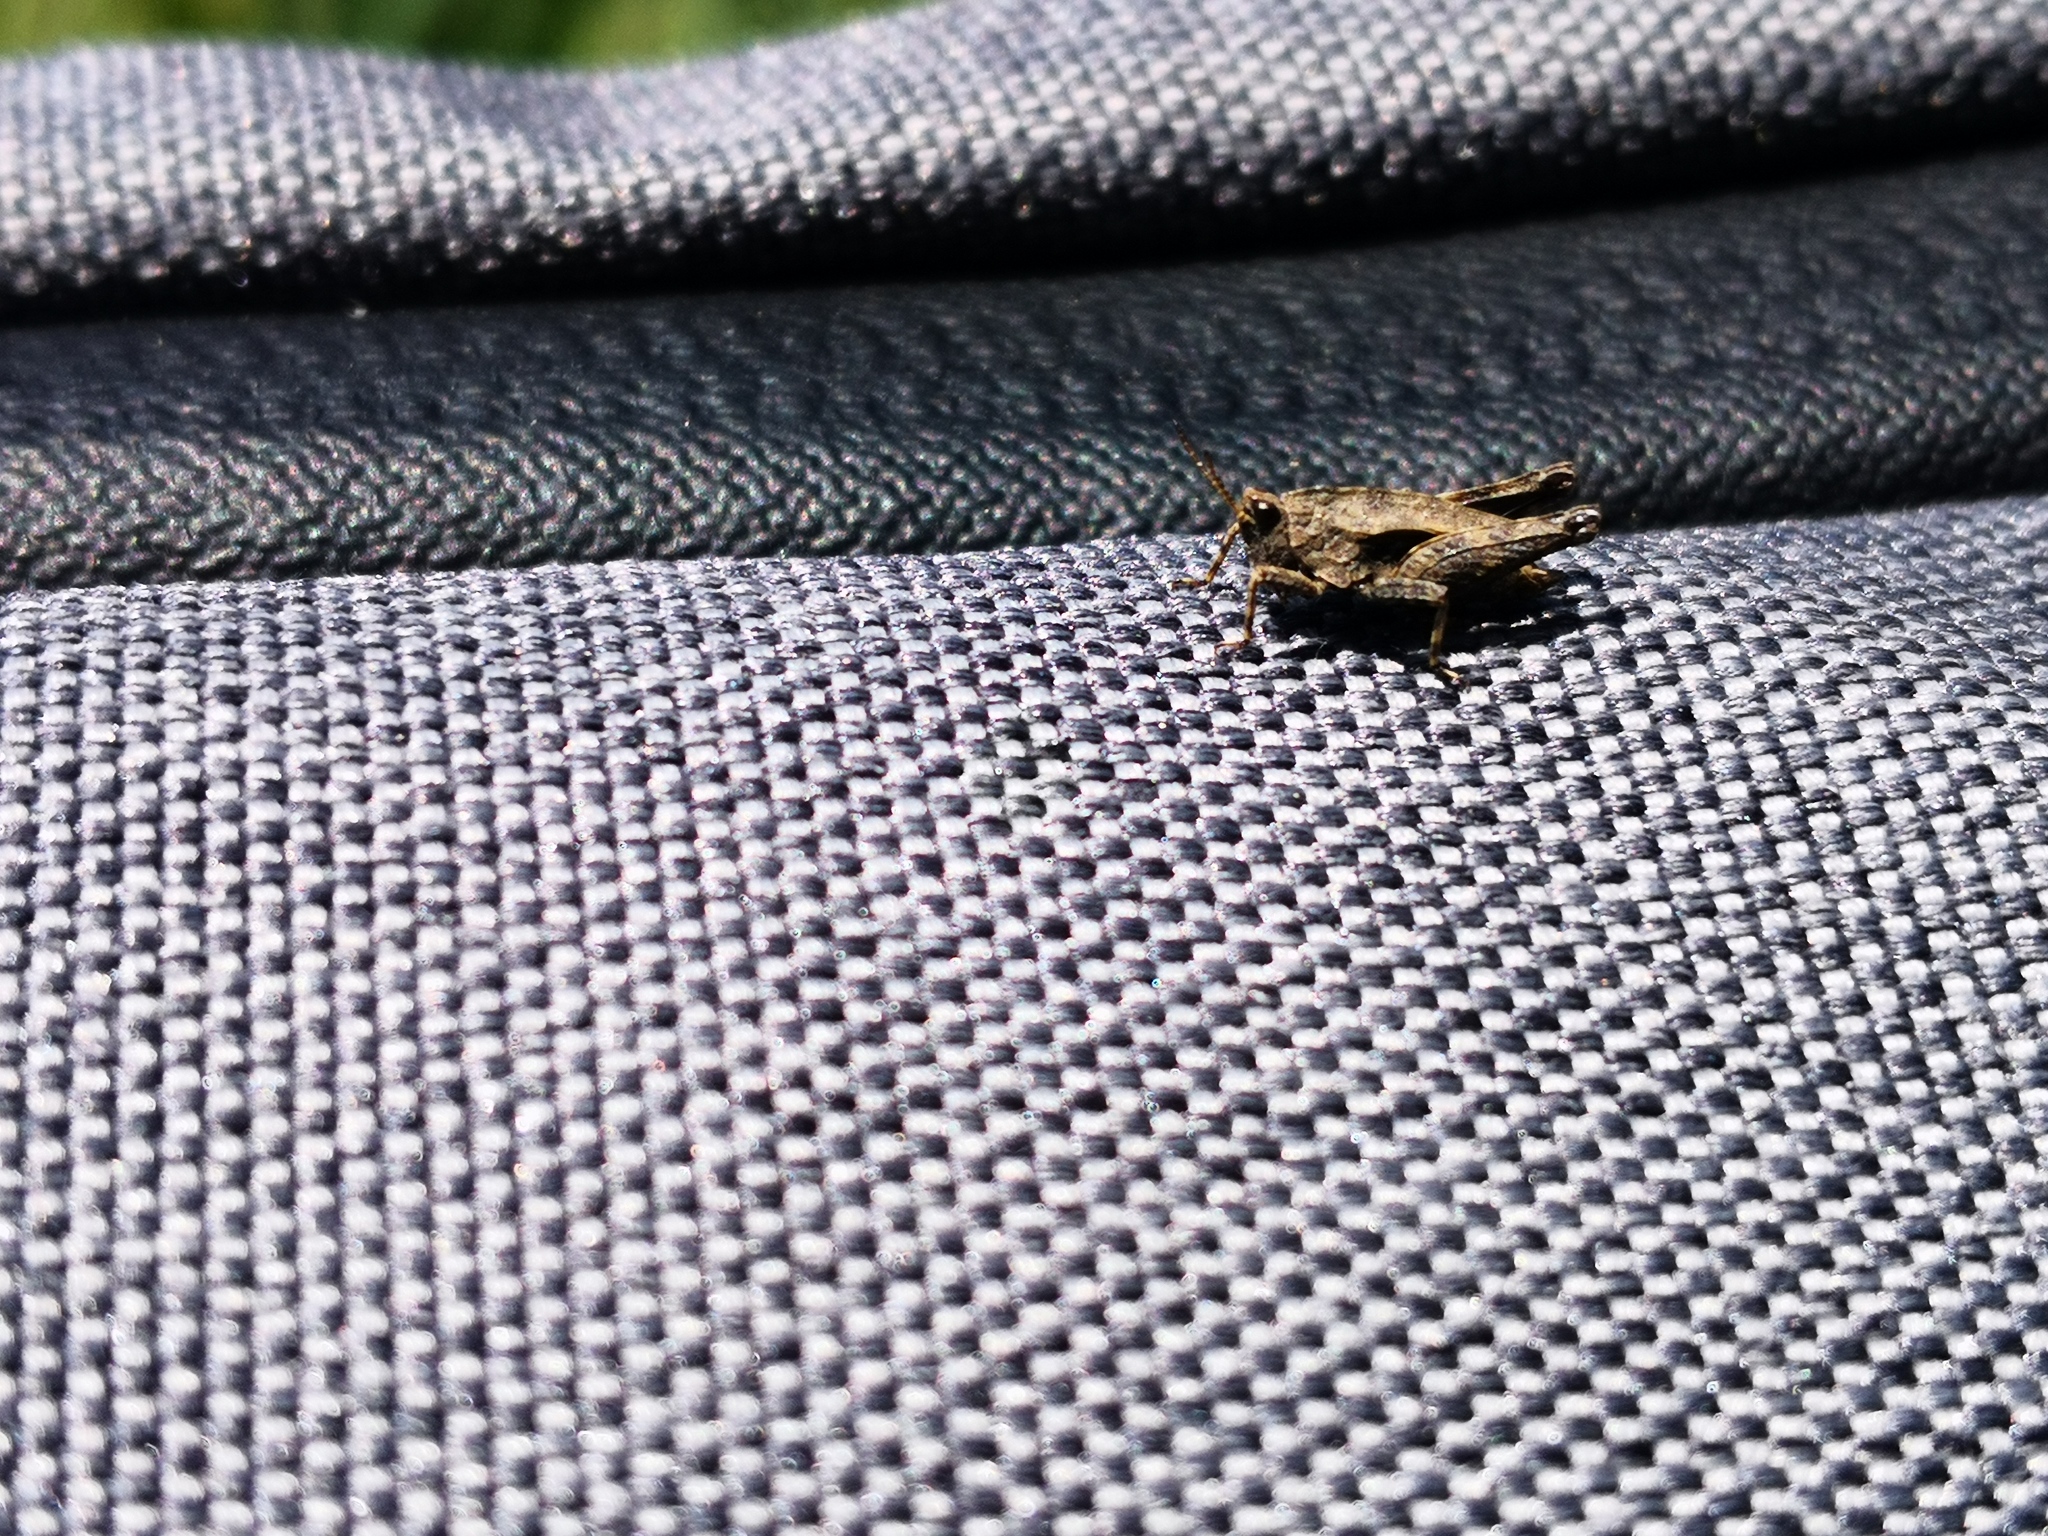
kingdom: Animalia
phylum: Arthropoda
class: Insecta
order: Orthoptera
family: Tetrigidae
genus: Tetrix
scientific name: Tetrix undulata
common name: Common groundhopper
